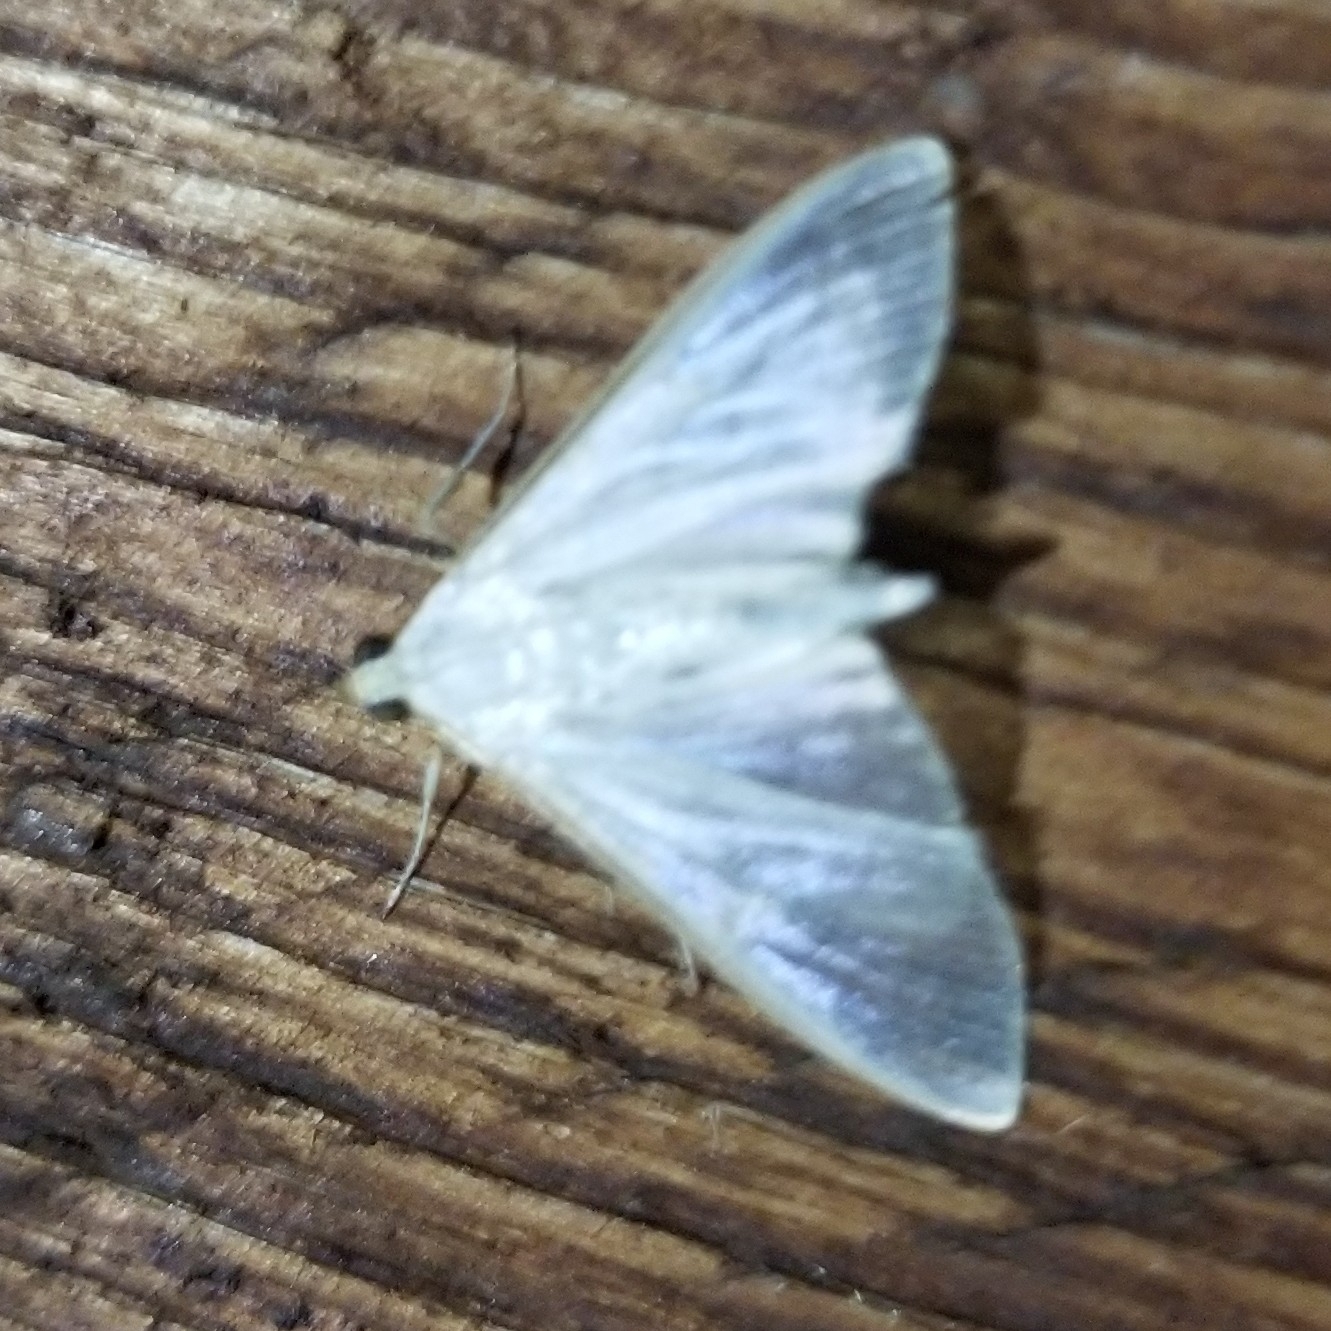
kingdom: Animalia
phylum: Arthropoda
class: Insecta
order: Lepidoptera
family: Crambidae
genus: Palpita
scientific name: Palpita vitrealis
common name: Olive-tree pearl
